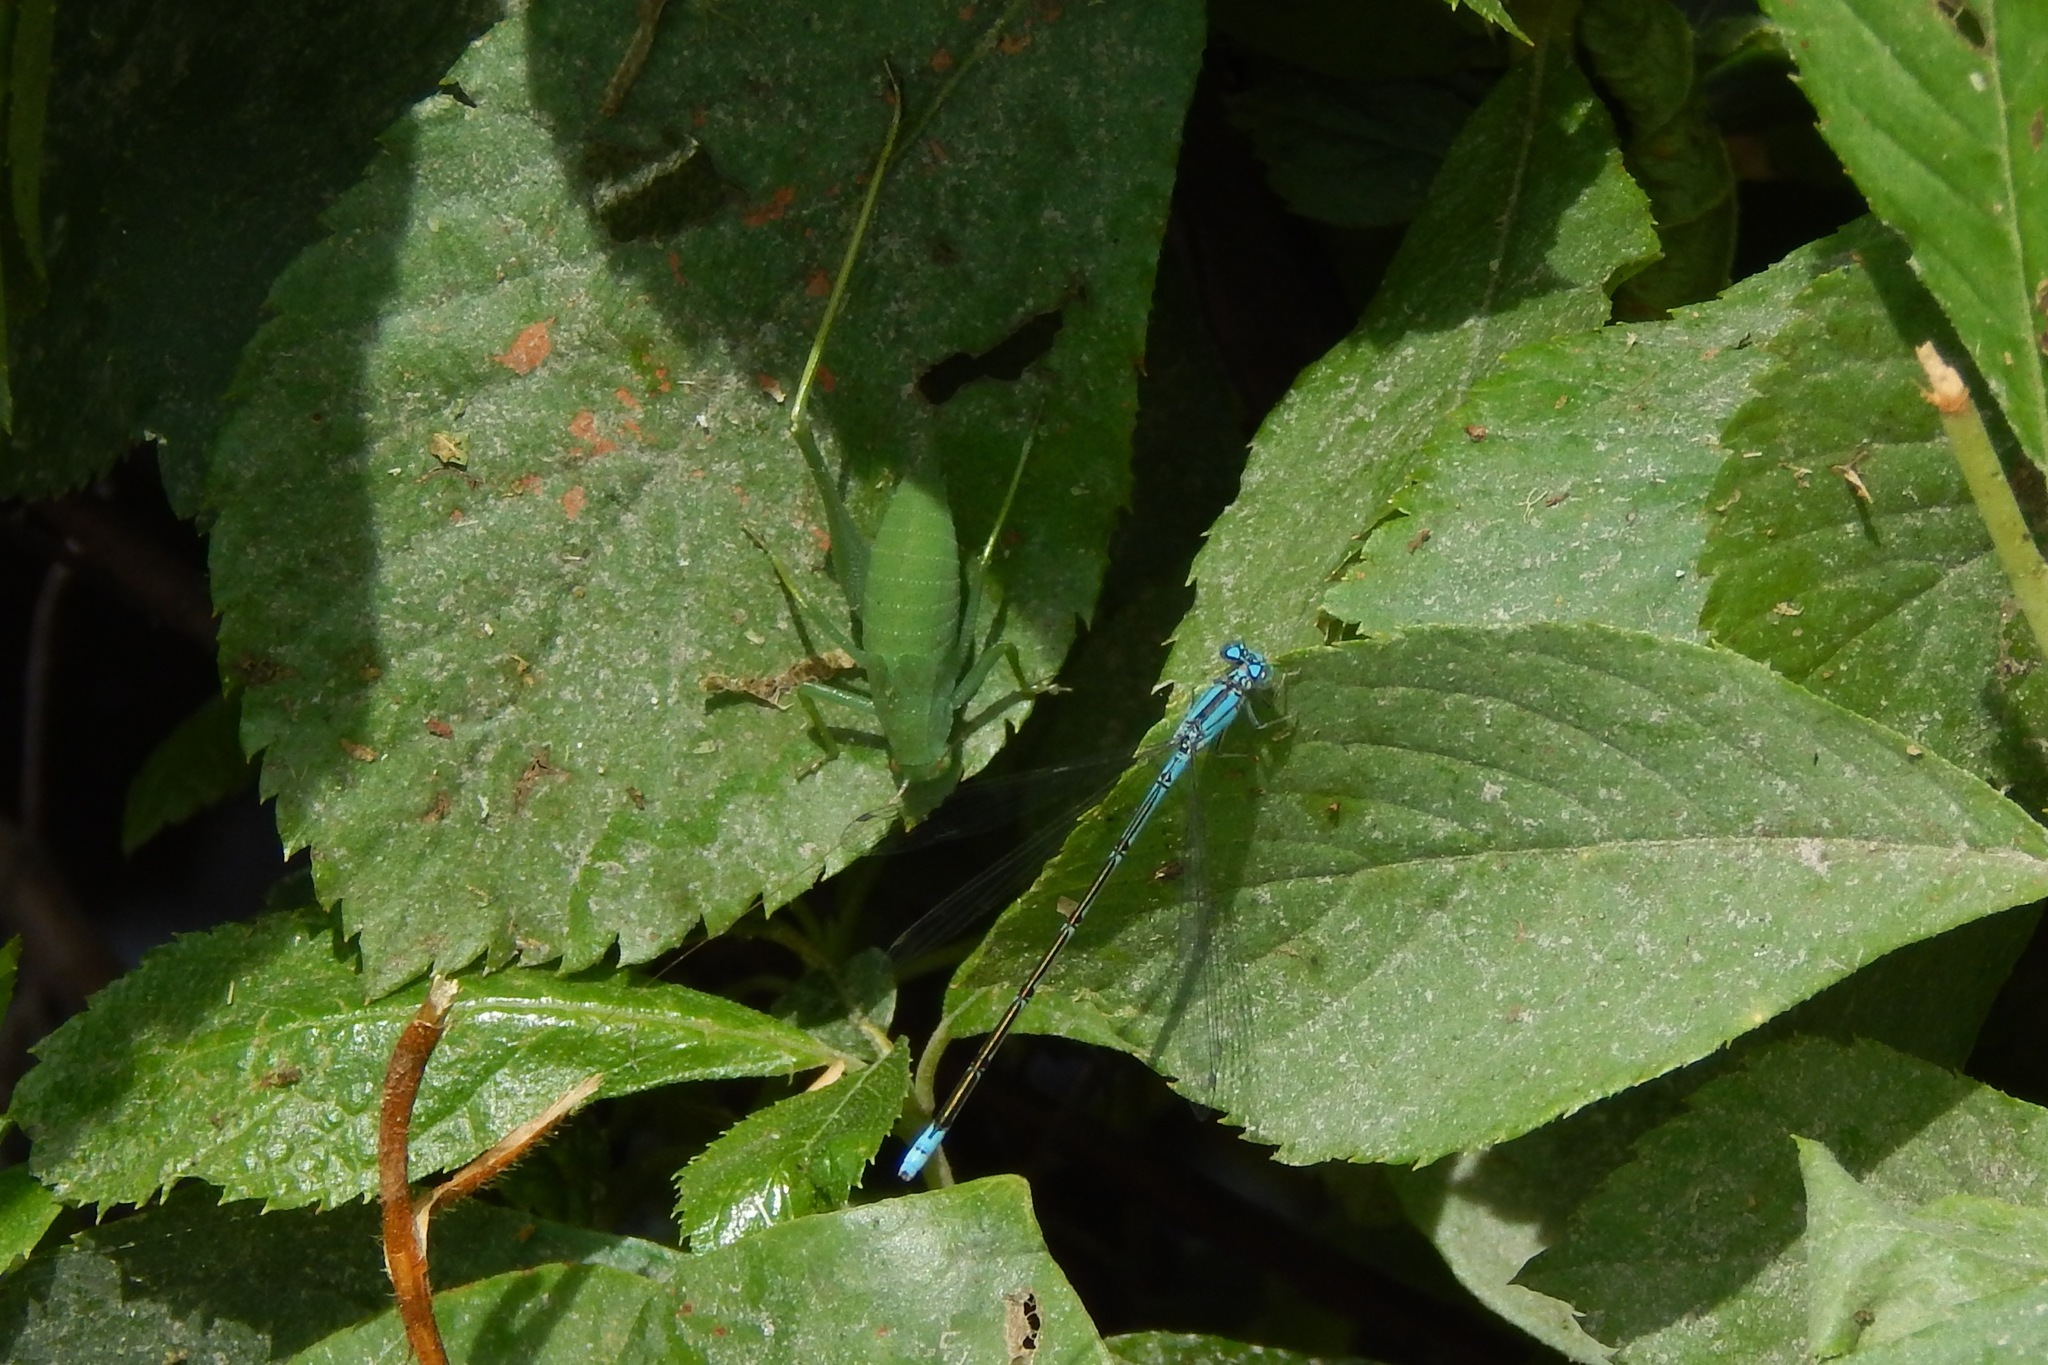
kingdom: Animalia
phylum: Arthropoda
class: Insecta
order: Orthoptera
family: Tettigoniidae
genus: Amblycorypha
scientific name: Amblycorypha
